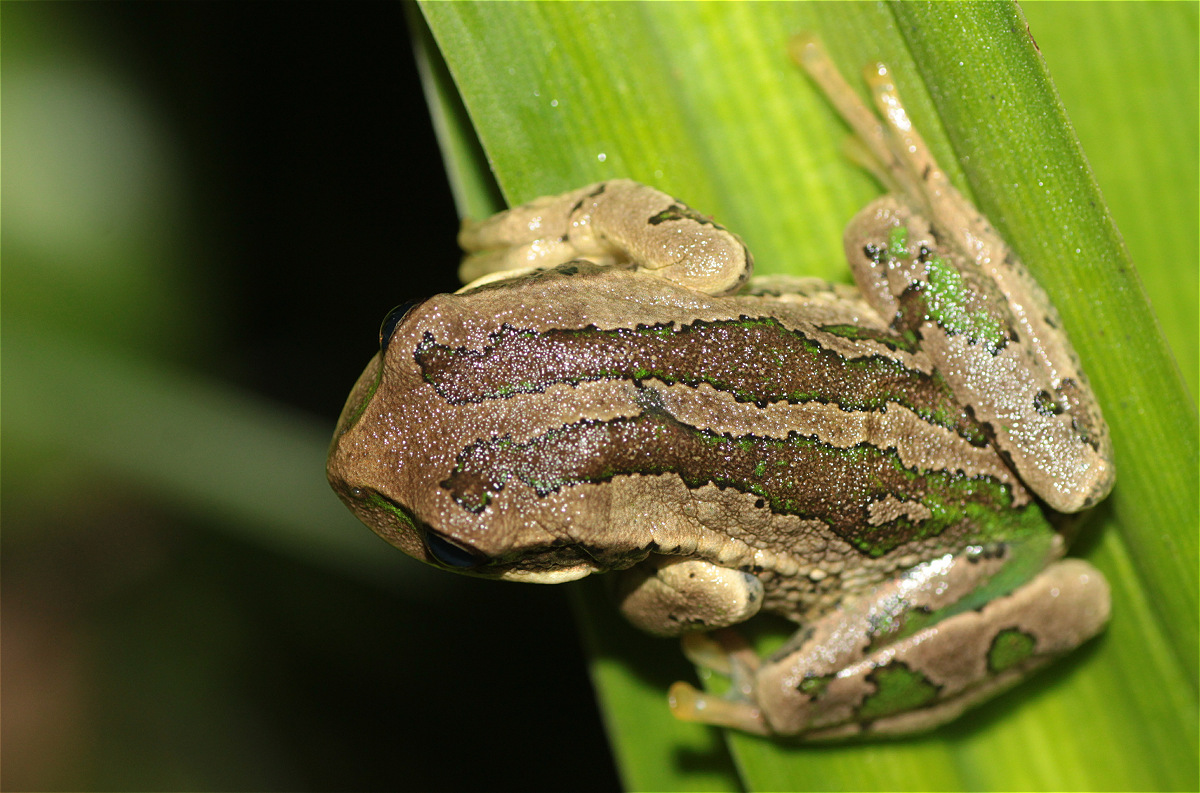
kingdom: Animalia
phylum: Chordata
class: Amphibia
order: Anura
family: Hemiphractidae
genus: Gastrotheca
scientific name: Gastrotheca cuencana
